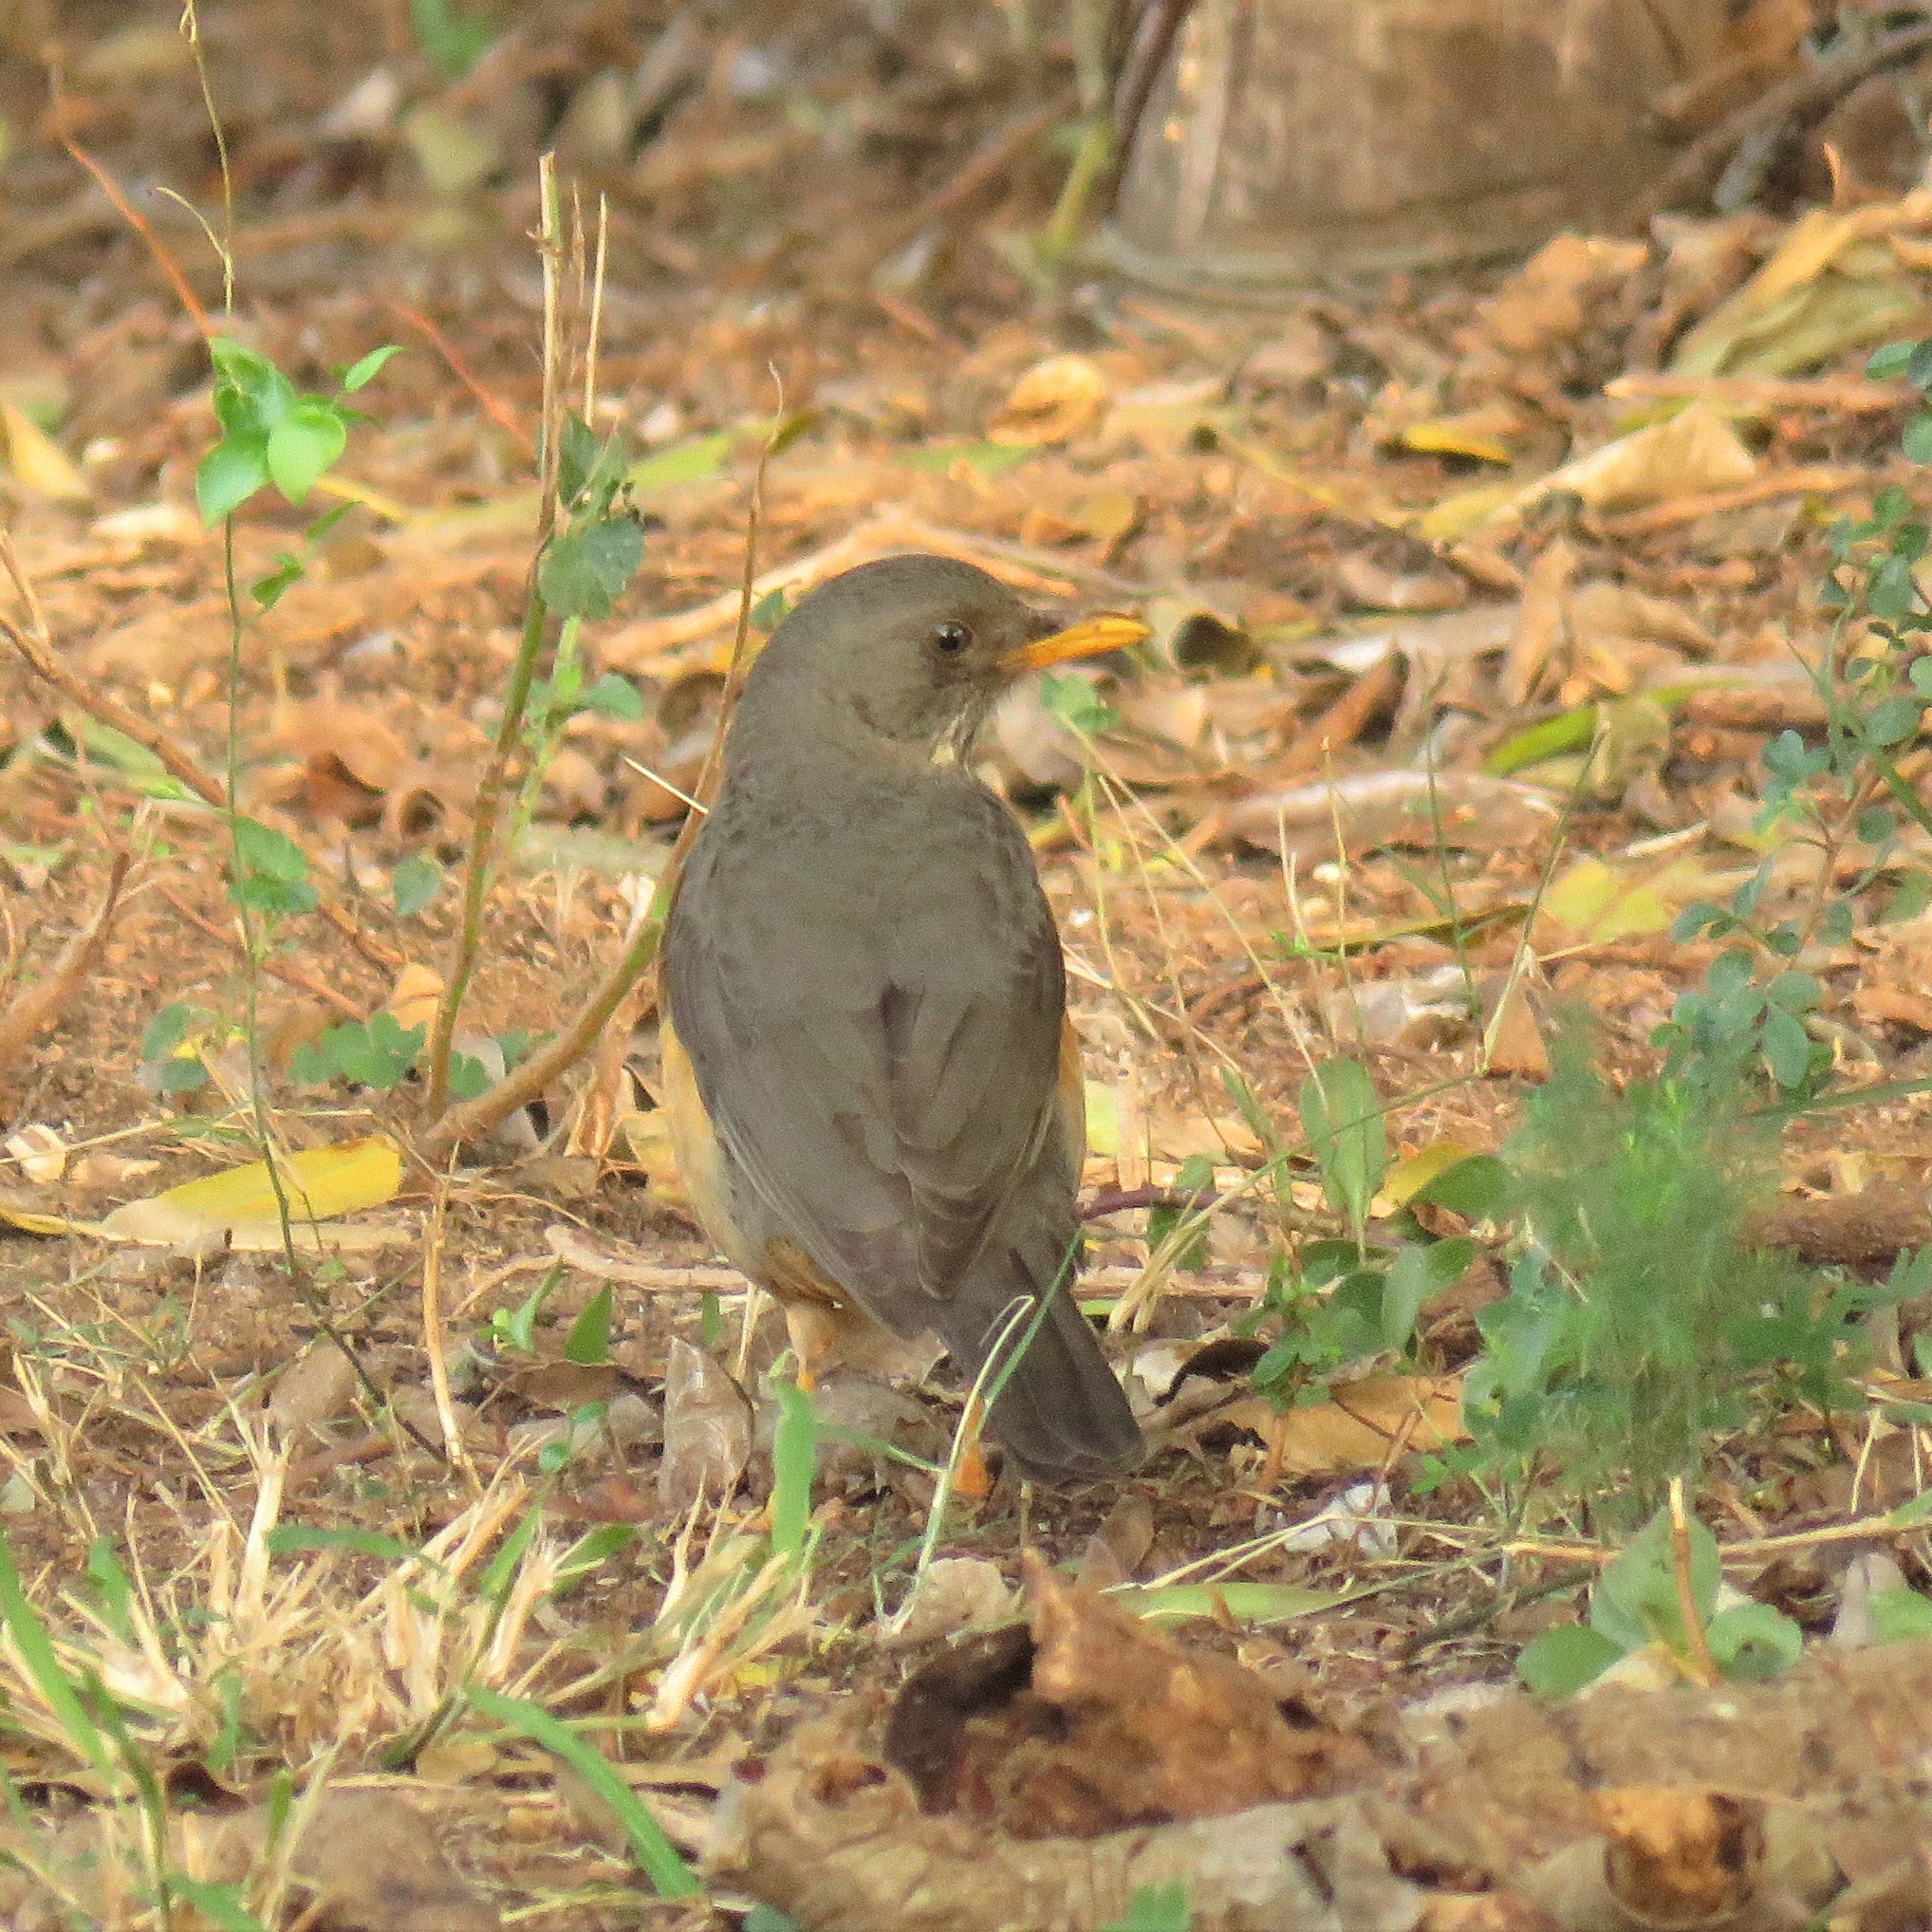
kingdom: Animalia
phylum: Chordata
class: Aves
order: Passeriformes
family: Turdidae
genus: Turdus
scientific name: Turdus olivaceus
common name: Olive thrush
